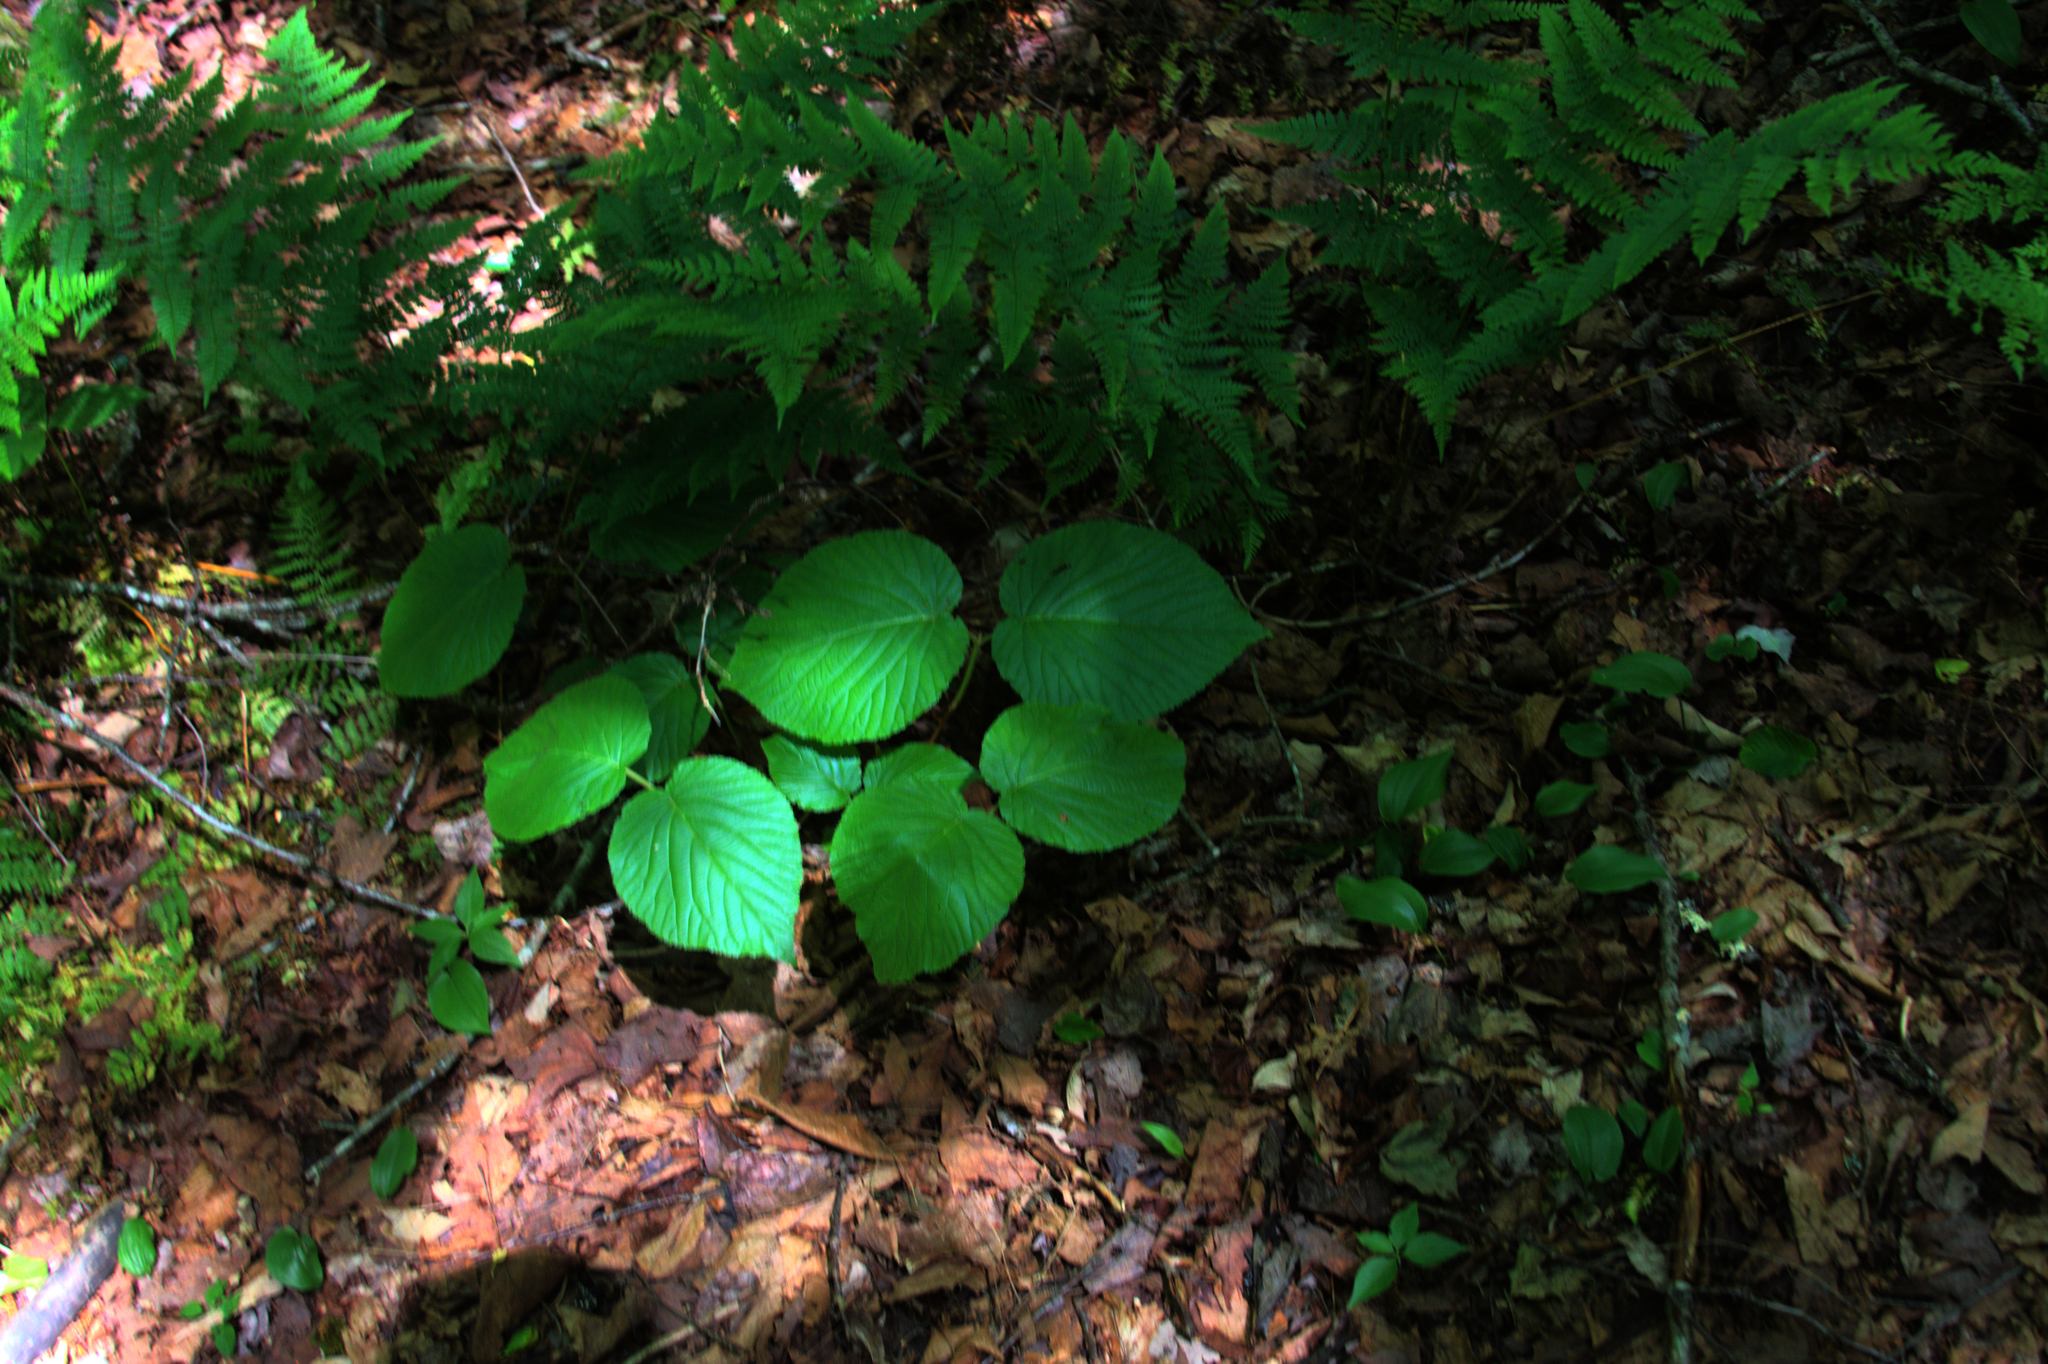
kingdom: Plantae
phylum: Tracheophyta
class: Magnoliopsida
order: Dipsacales
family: Viburnaceae
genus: Viburnum
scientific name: Viburnum lantanoides
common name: Hobblebush
